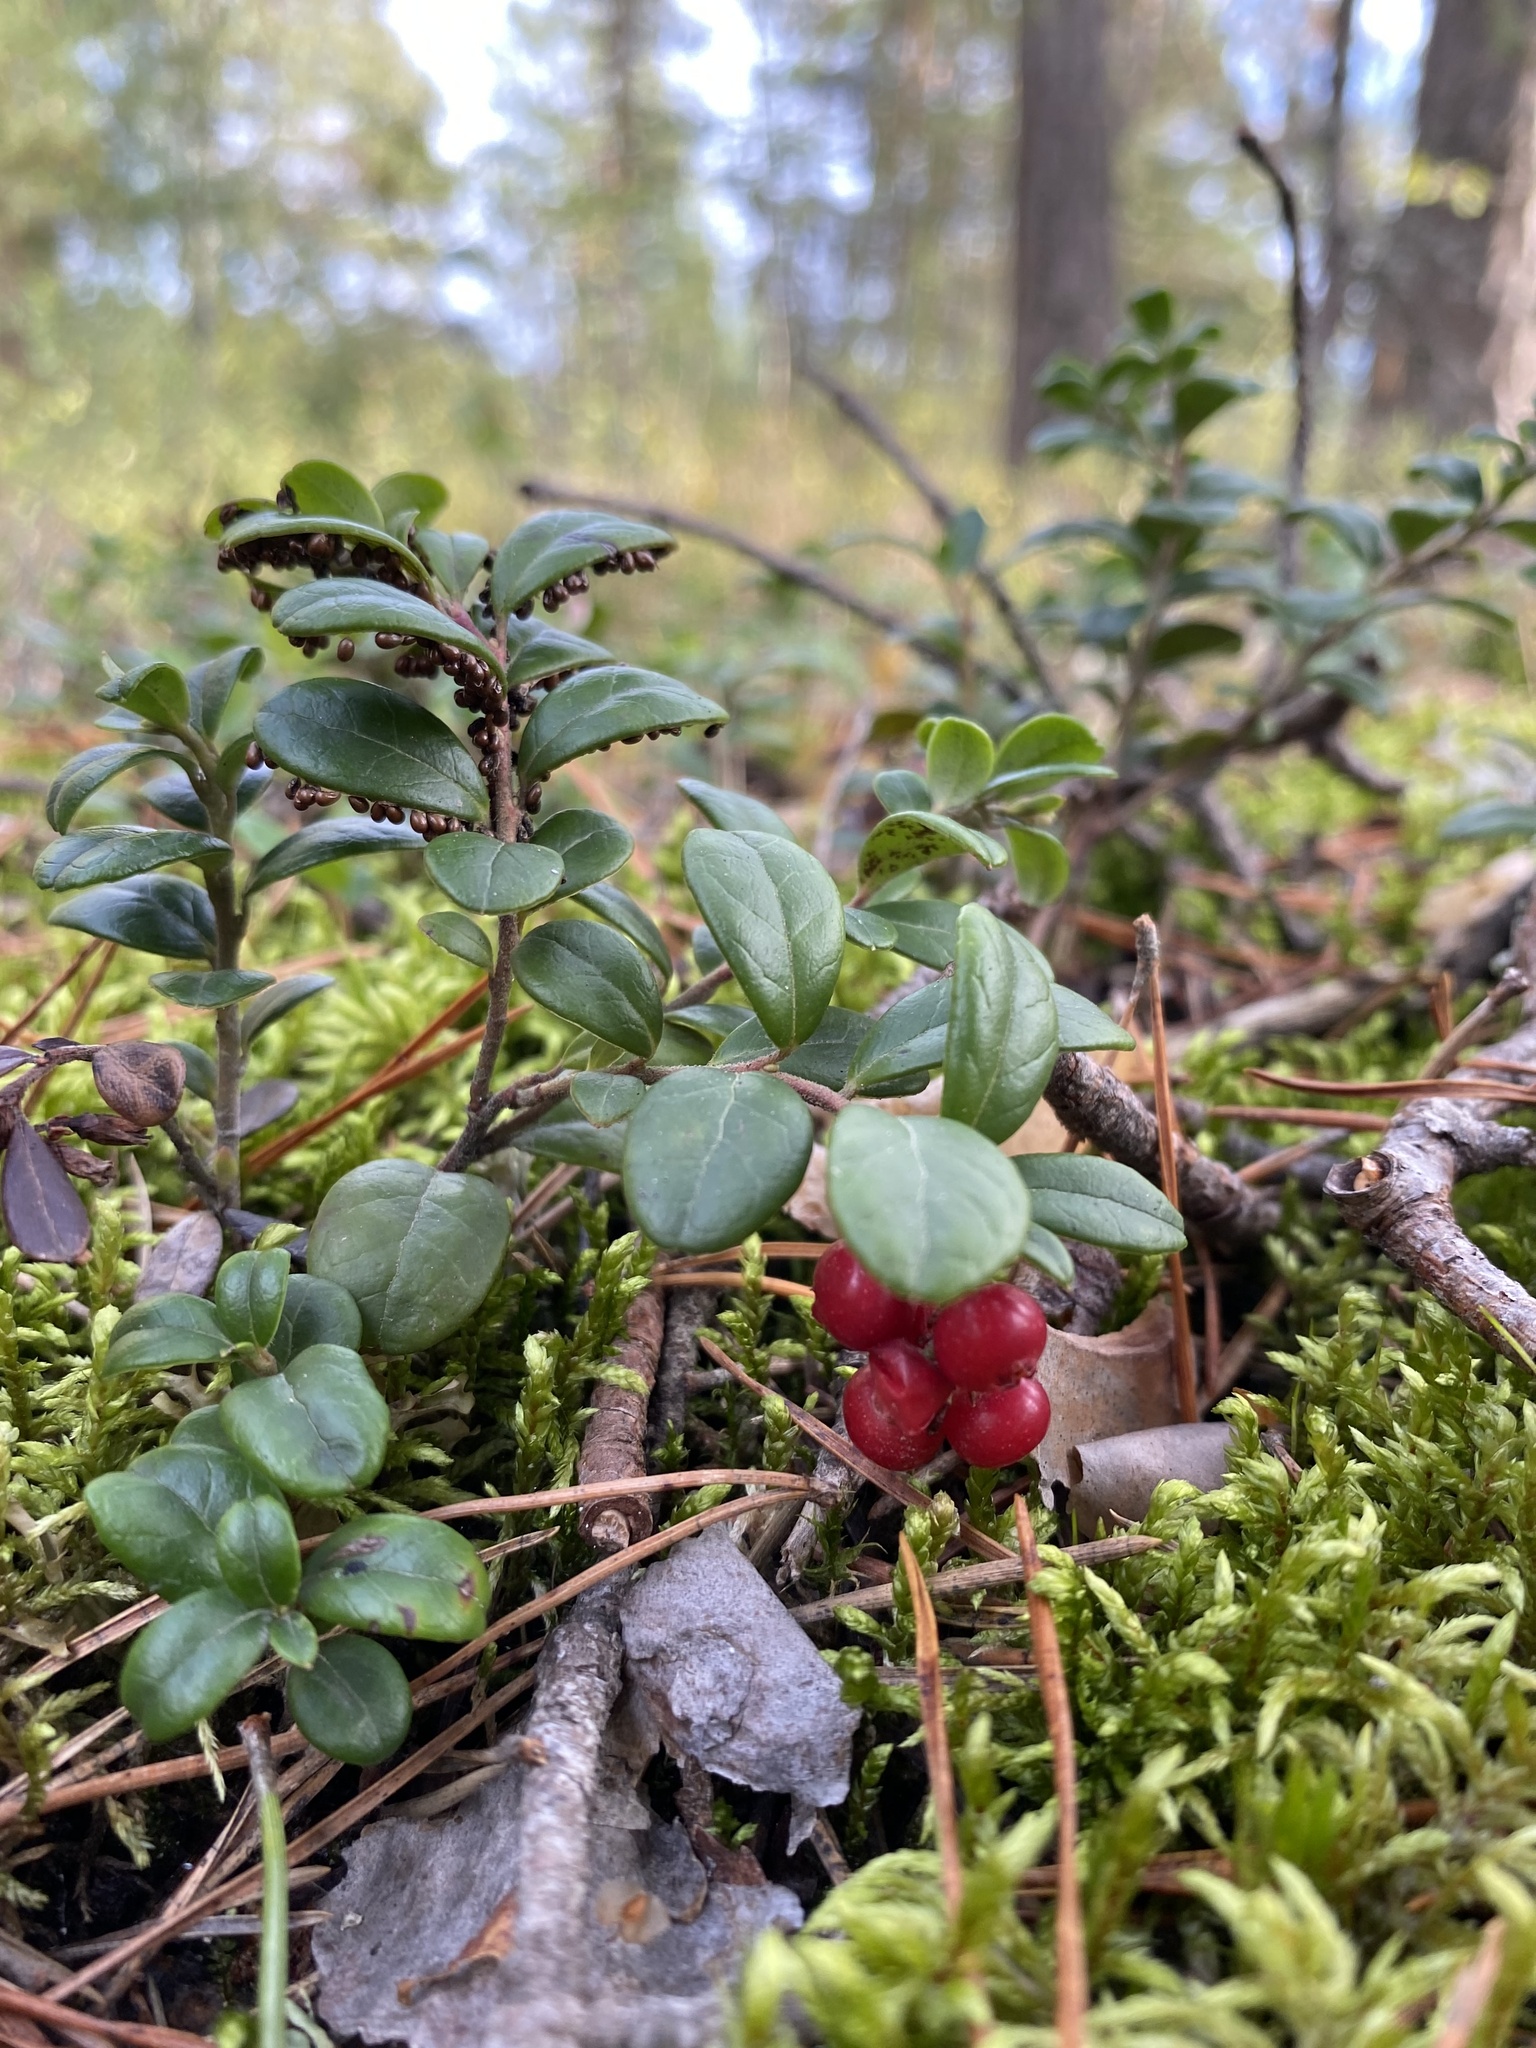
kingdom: Plantae
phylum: Tracheophyta
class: Magnoliopsida
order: Ericales
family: Ericaceae
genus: Vaccinium
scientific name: Vaccinium vitis-idaea
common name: Cowberry
